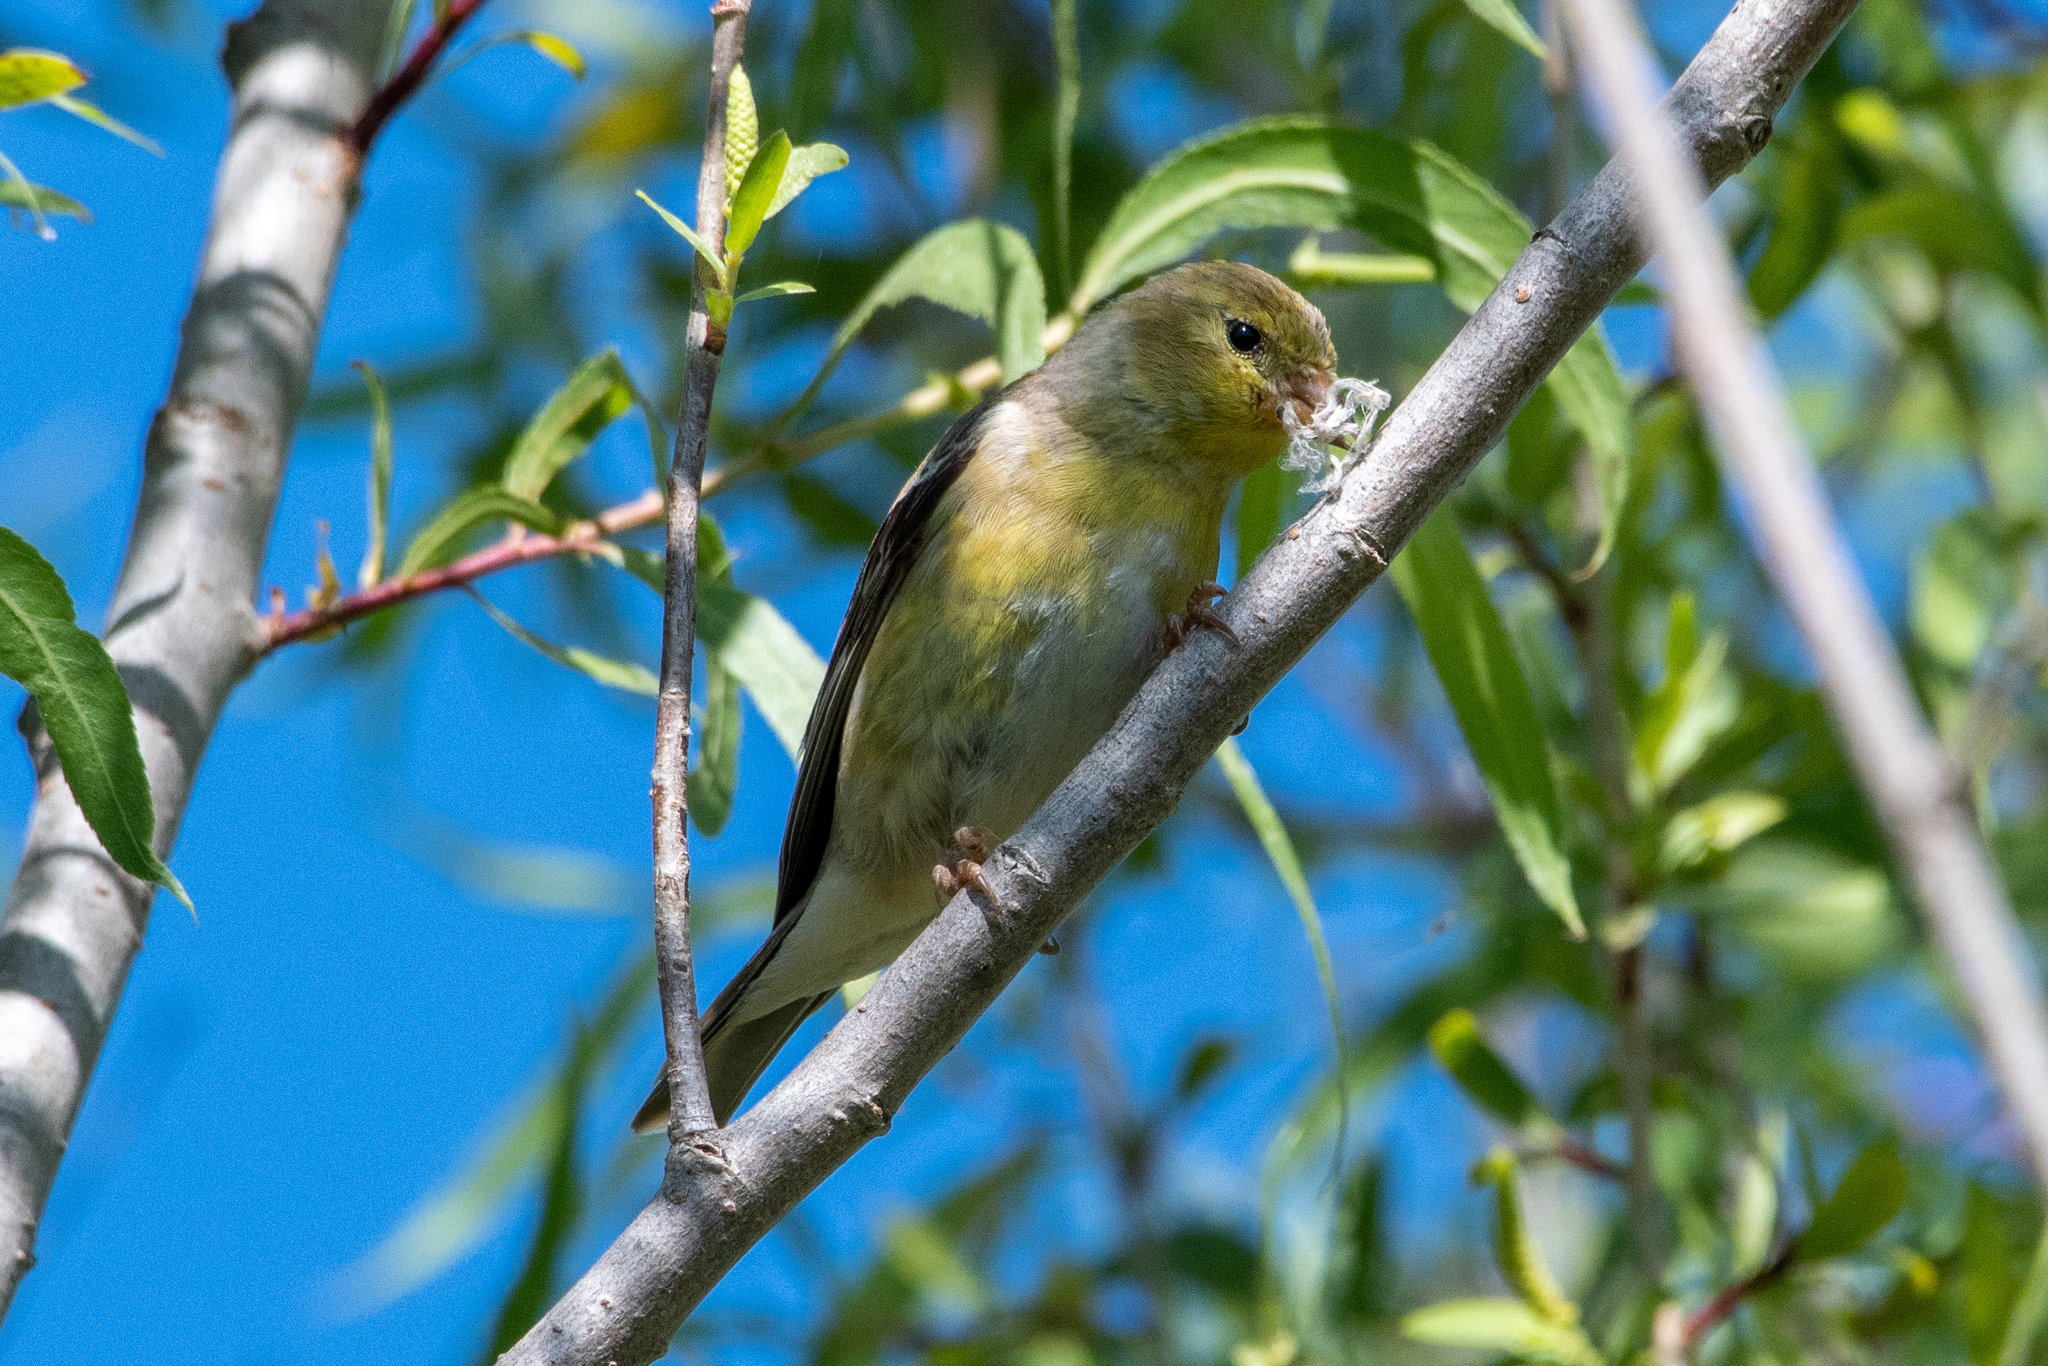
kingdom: Animalia
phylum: Chordata
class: Aves
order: Passeriformes
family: Fringillidae
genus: Spinus
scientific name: Spinus tristis
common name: American goldfinch
